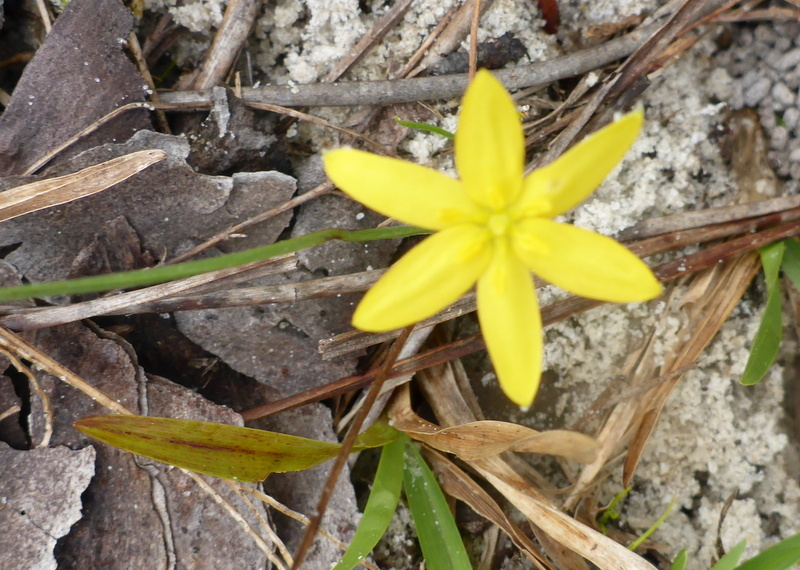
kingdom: Plantae
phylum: Tracheophyta
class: Liliopsida
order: Asparagales
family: Hypoxidaceae
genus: Hypoxis
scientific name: Hypoxis hirsuta
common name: Common goldstar
